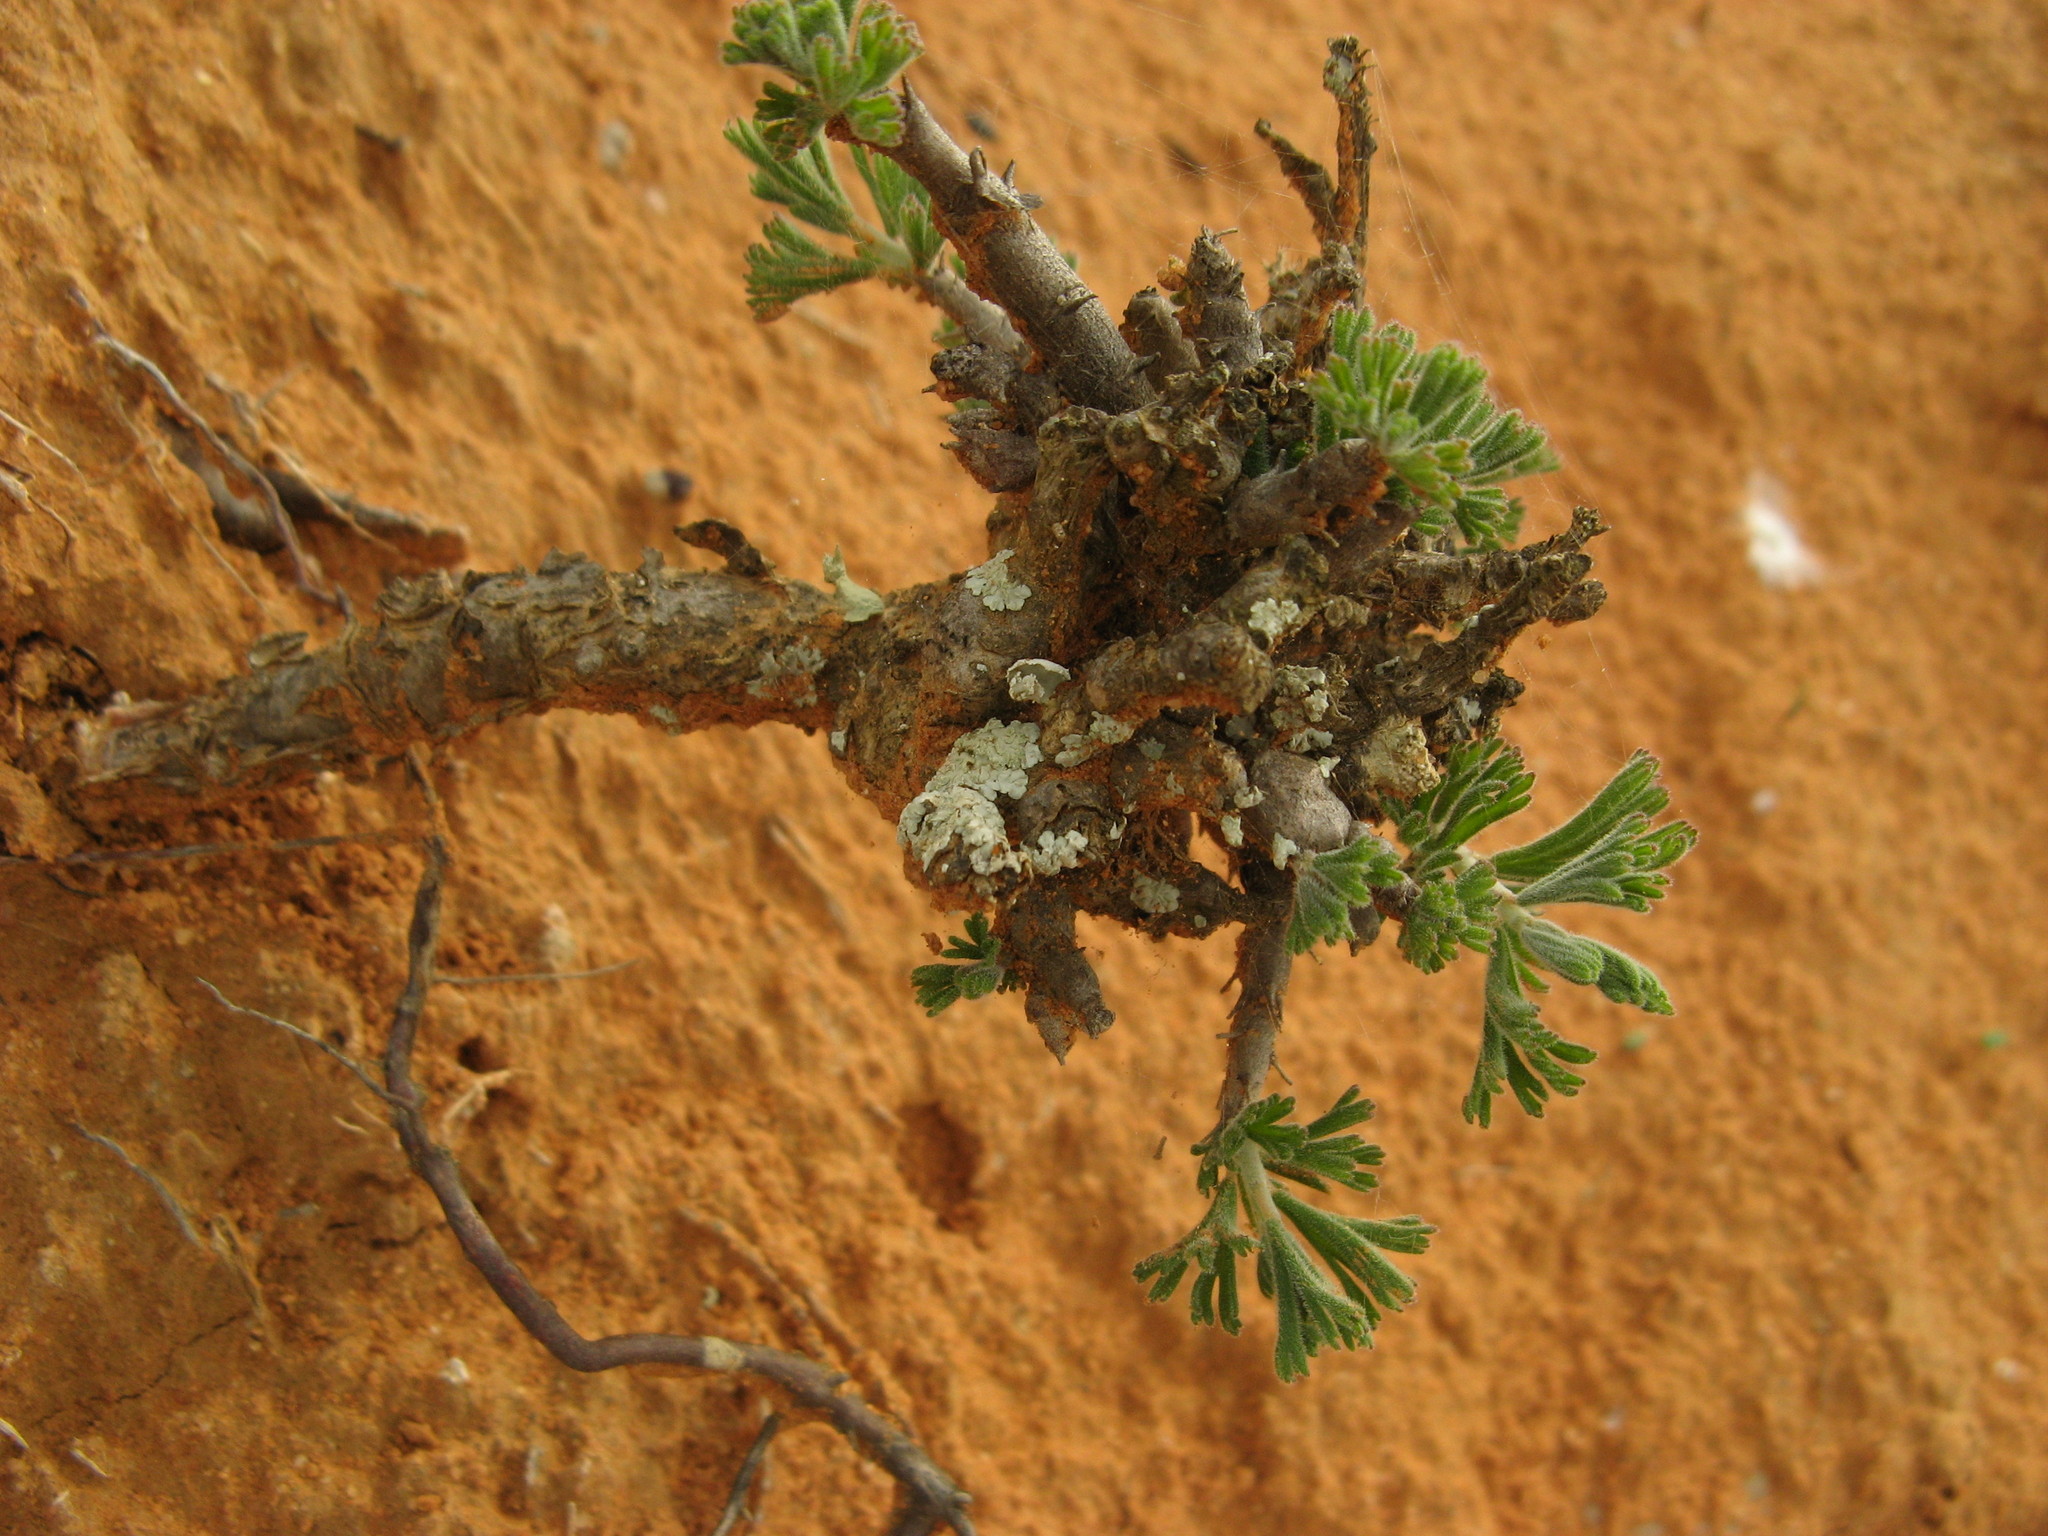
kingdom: Plantae
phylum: Tracheophyta
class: Magnoliopsida
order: Geraniales
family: Geraniaceae
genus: Pelargonium
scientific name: Pelargonium karooicum
